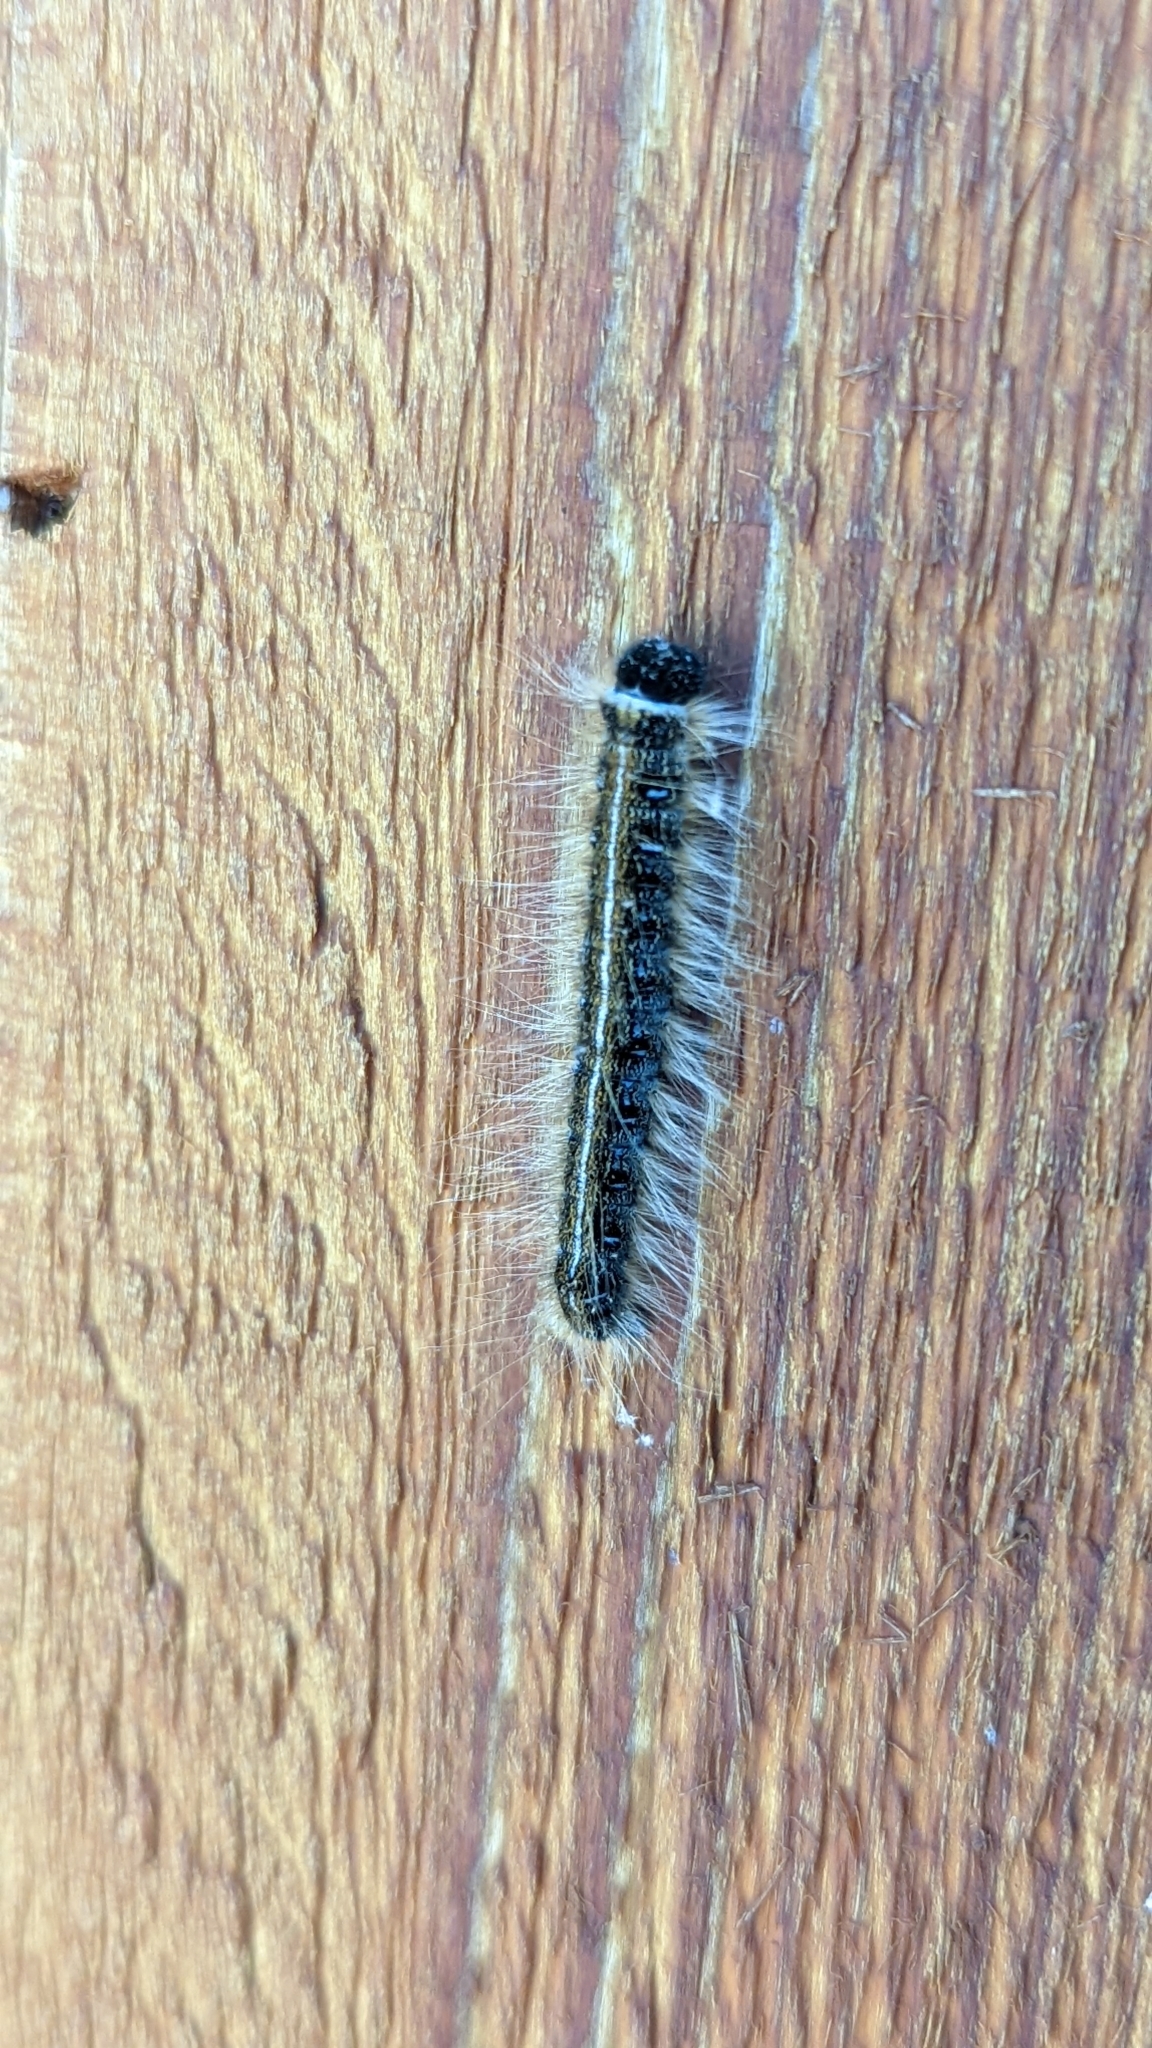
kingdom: Animalia
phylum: Arthropoda
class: Insecta
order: Lepidoptera
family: Lasiocampidae
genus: Malacosoma
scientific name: Malacosoma americana
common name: Eastern tent caterpillar moth
